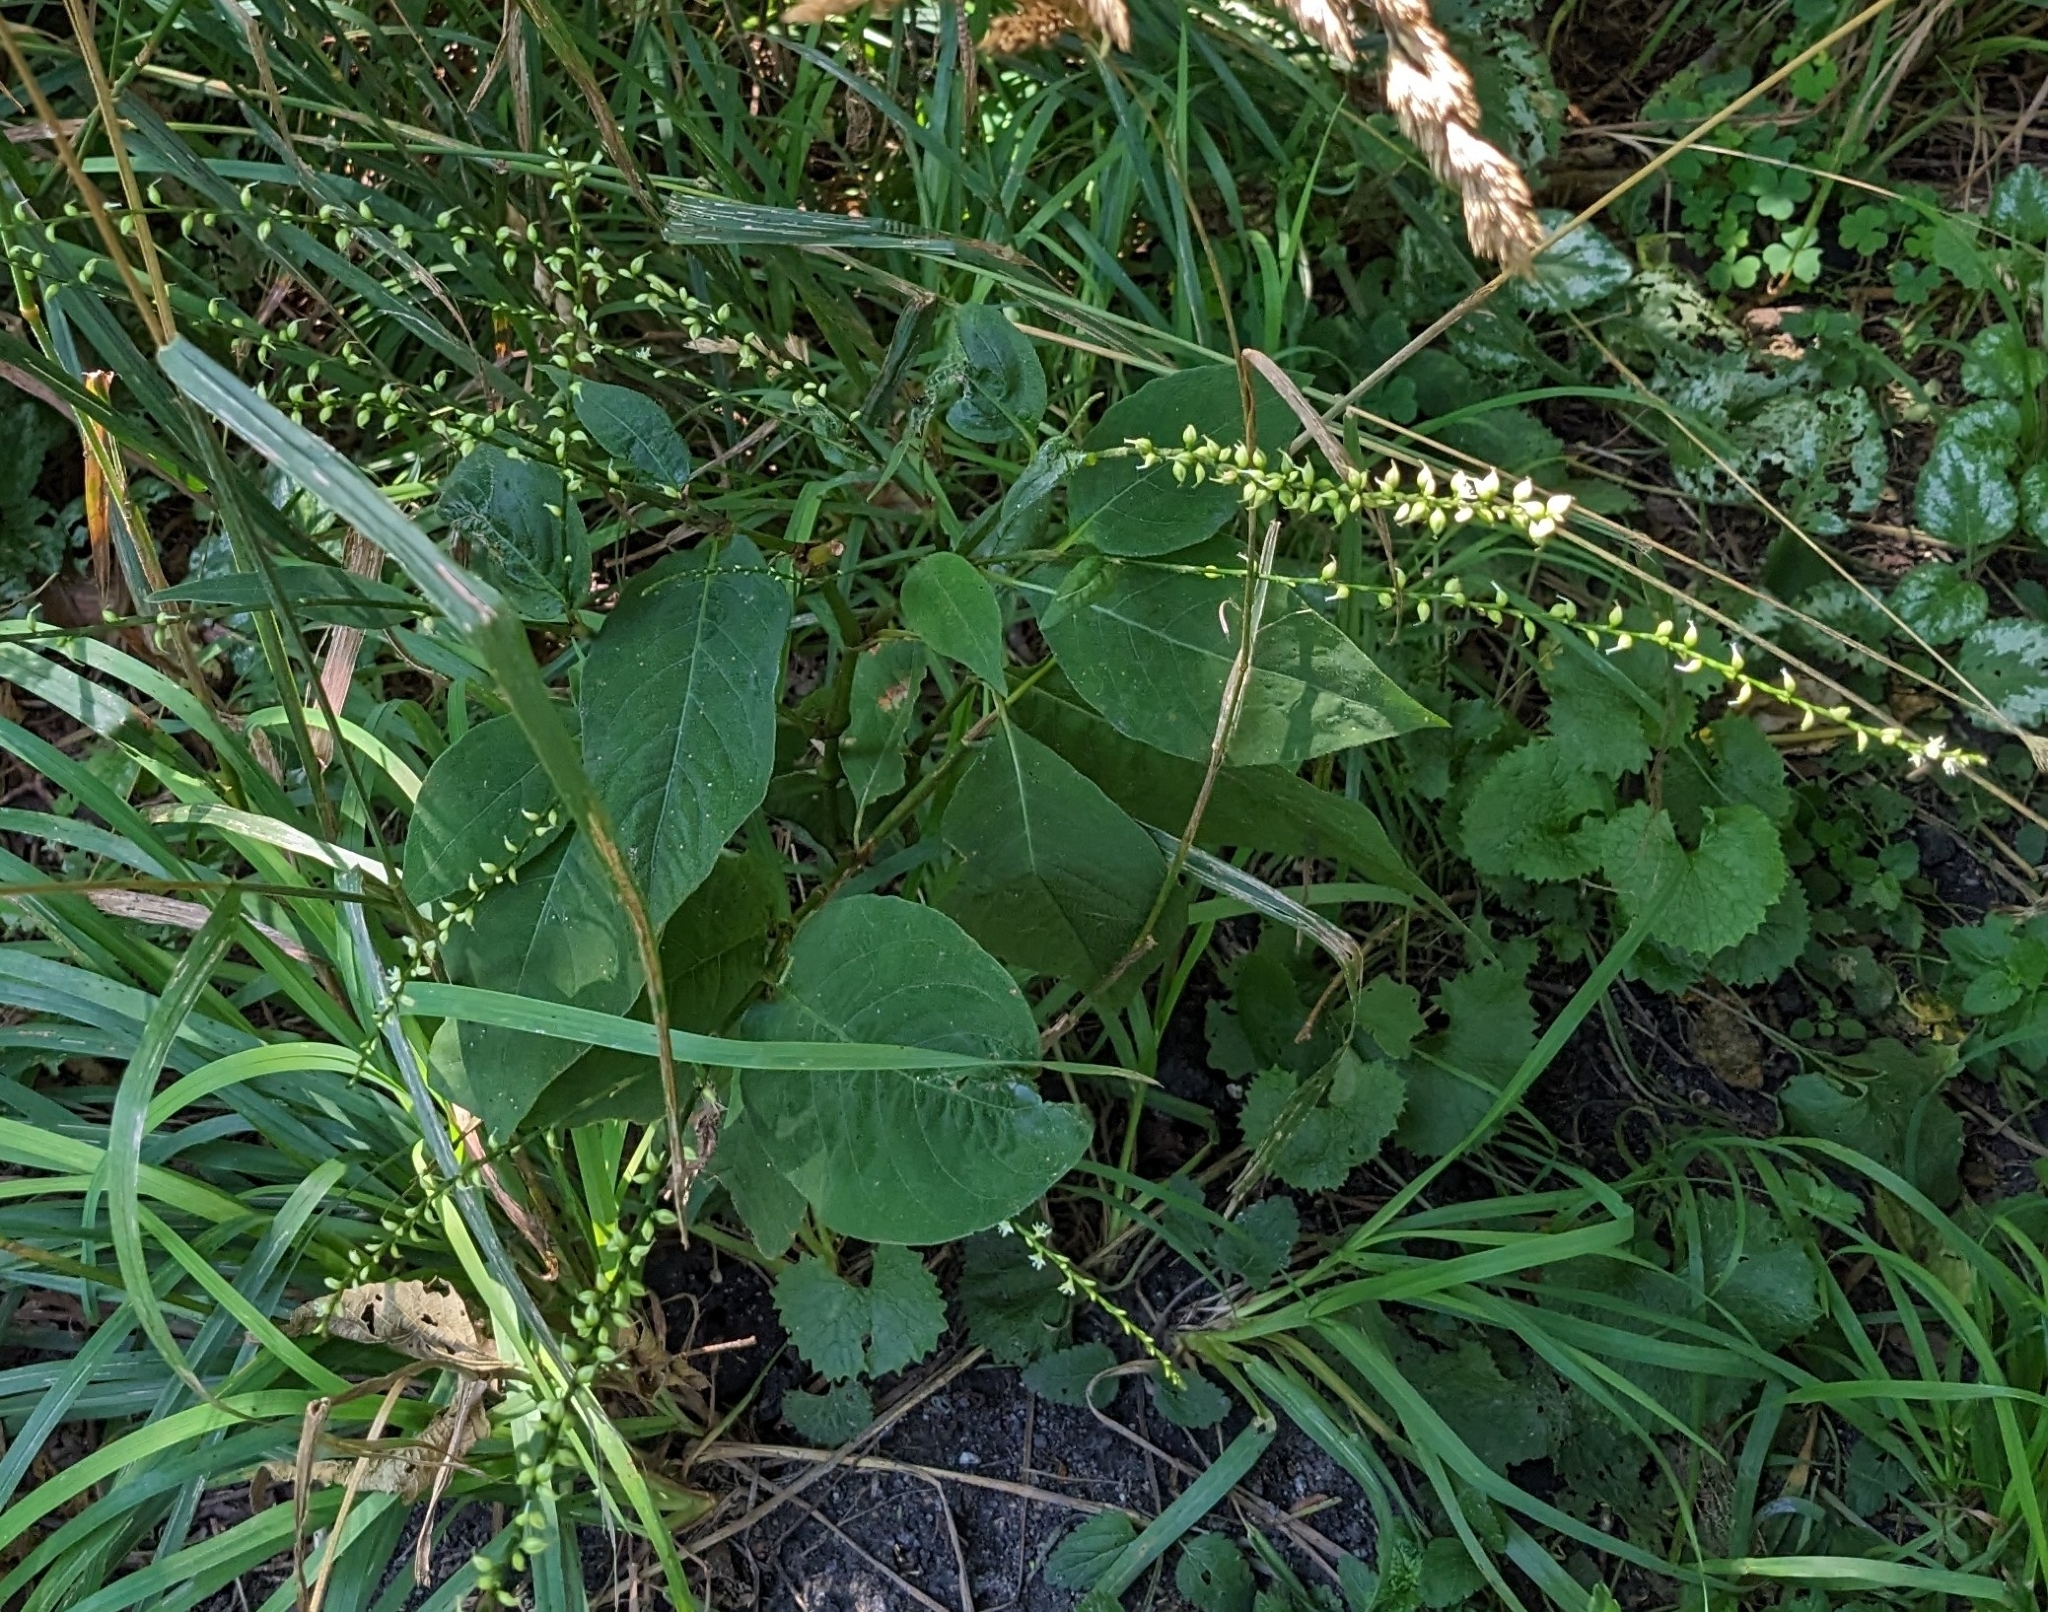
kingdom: Plantae
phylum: Tracheophyta
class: Magnoliopsida
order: Caryophyllales
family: Polygonaceae
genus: Persicaria
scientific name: Persicaria virginiana
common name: Jumpseed
